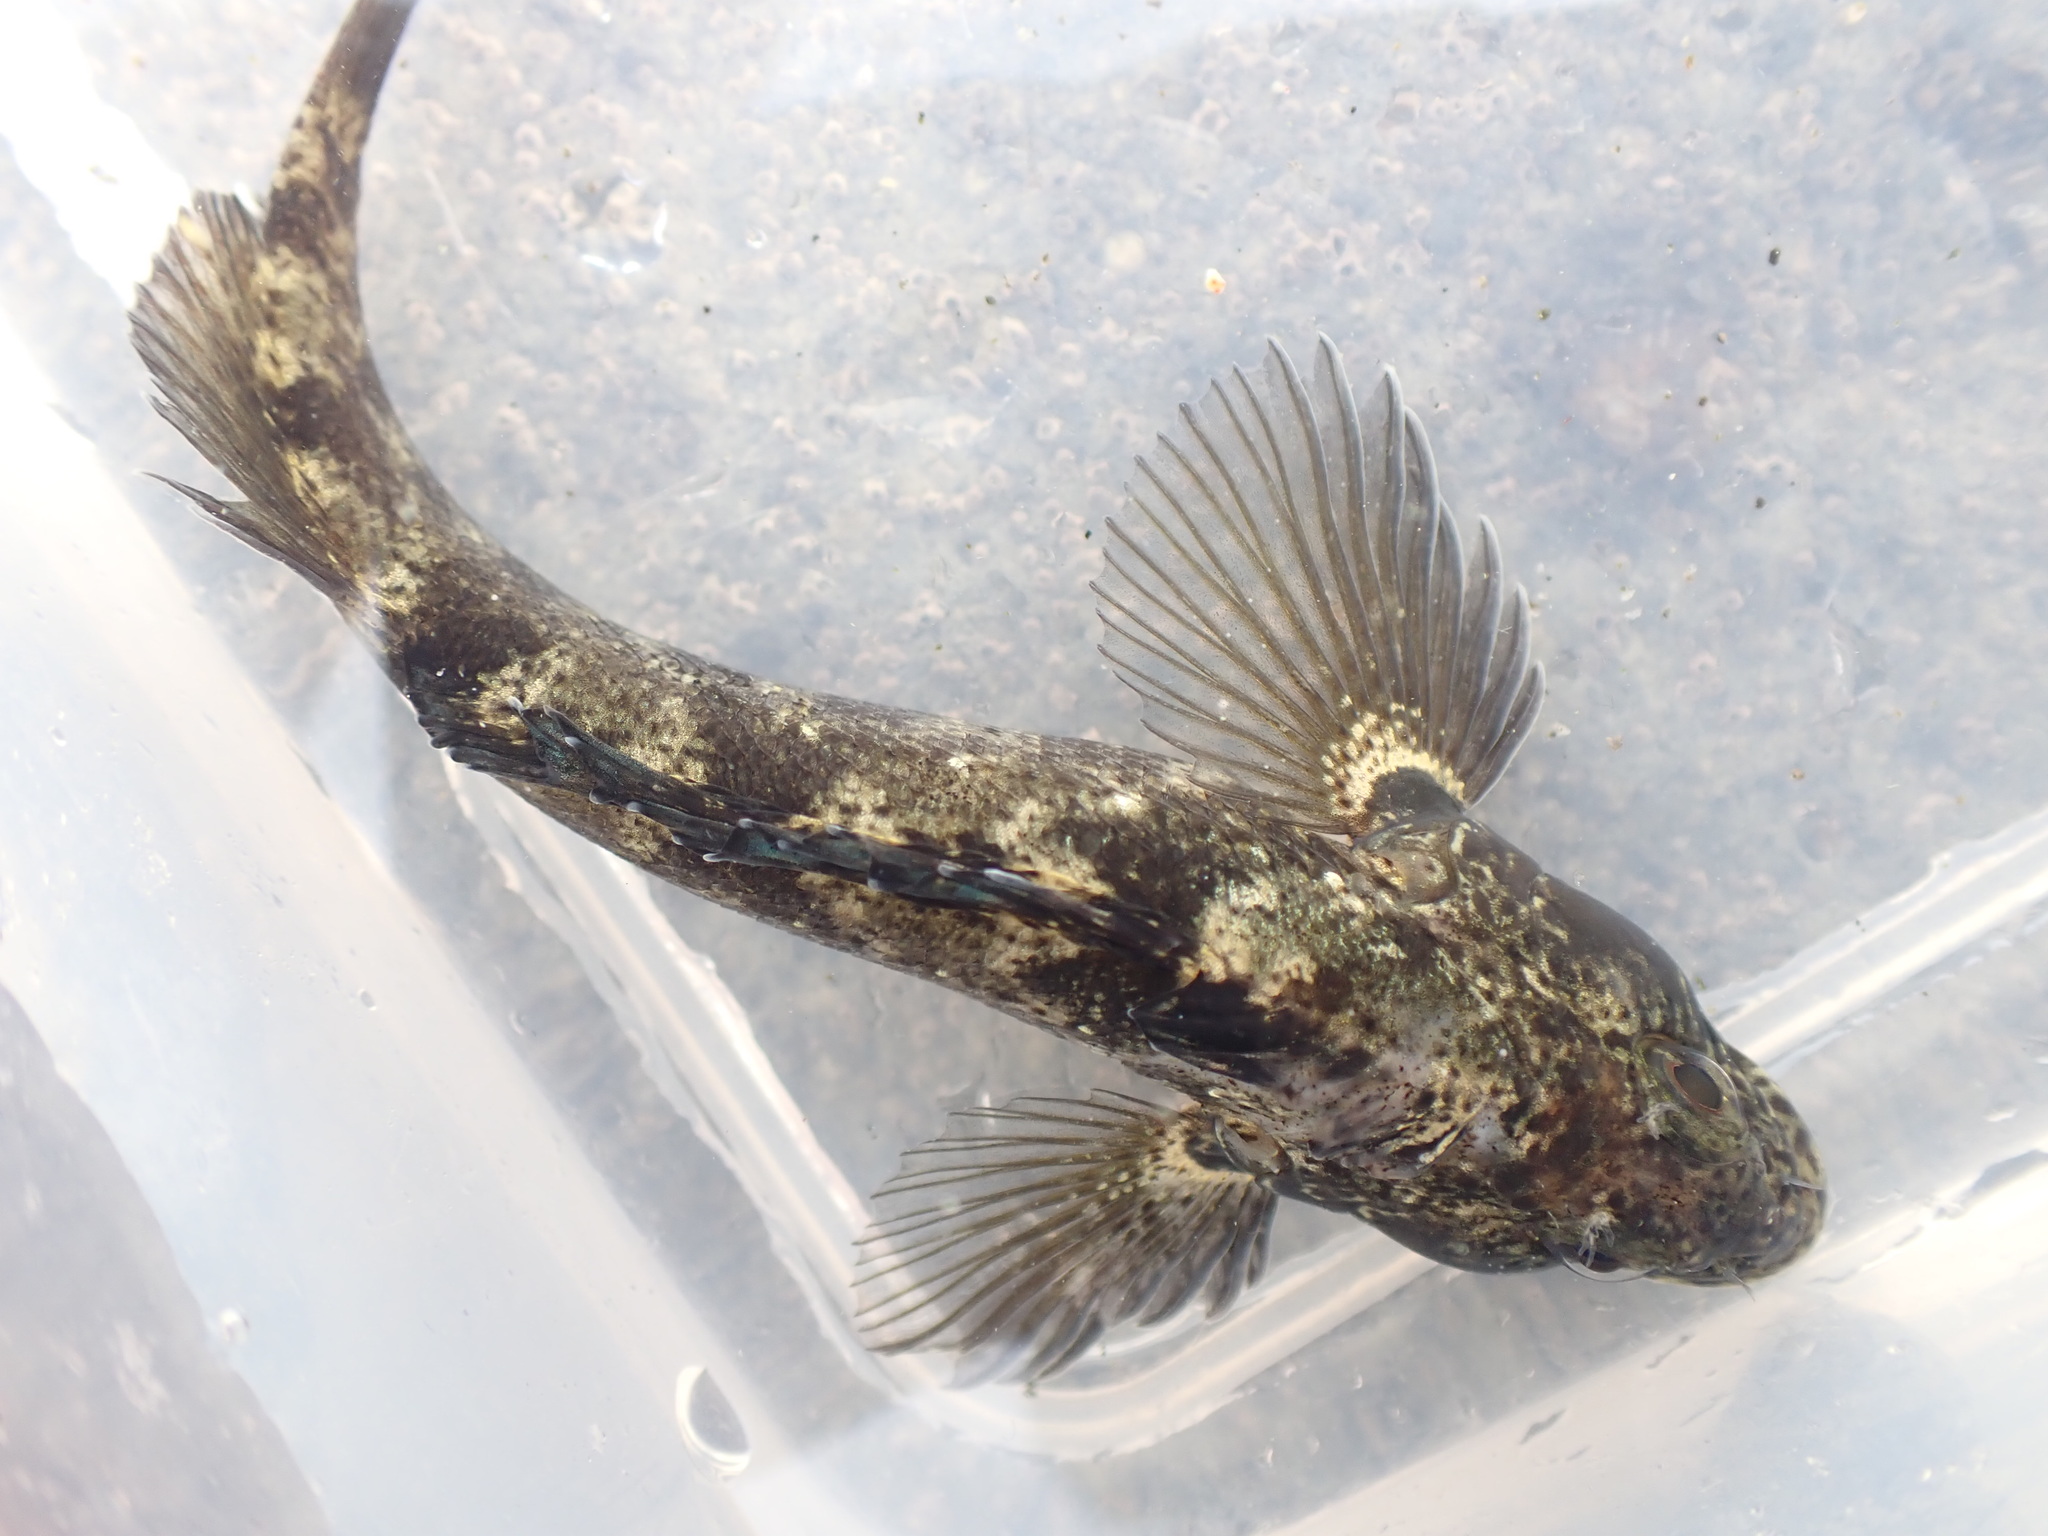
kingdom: Animalia
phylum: Chordata
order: Perciformes
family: Tripterygiidae
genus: Forsterygion
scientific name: Forsterygion gymnotum
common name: Multifid-tentacled robust triplefin
